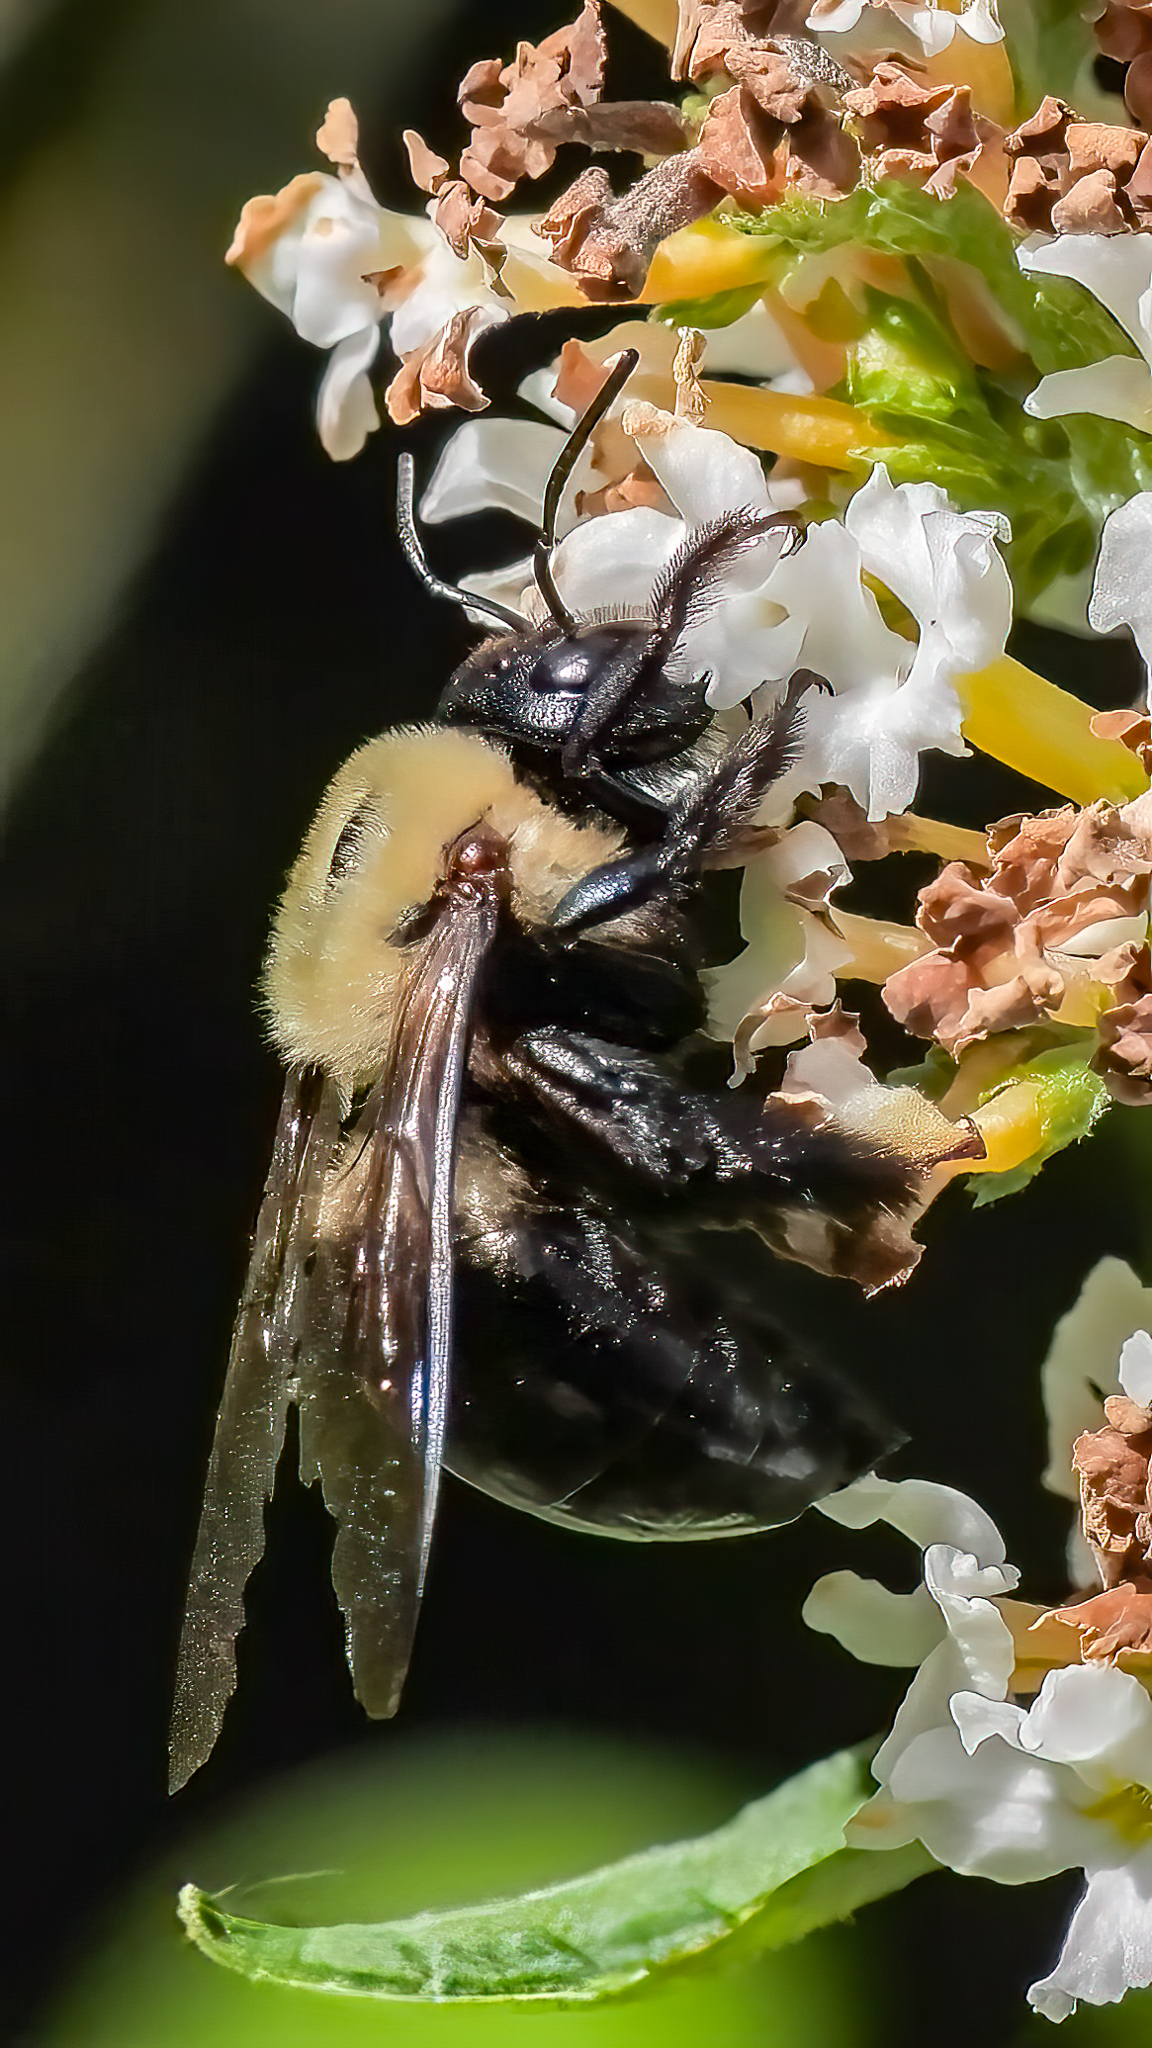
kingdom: Animalia
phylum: Arthropoda
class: Insecta
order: Hymenoptera
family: Apidae
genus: Xylocopa
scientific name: Xylocopa virginica
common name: Carpenter bee
